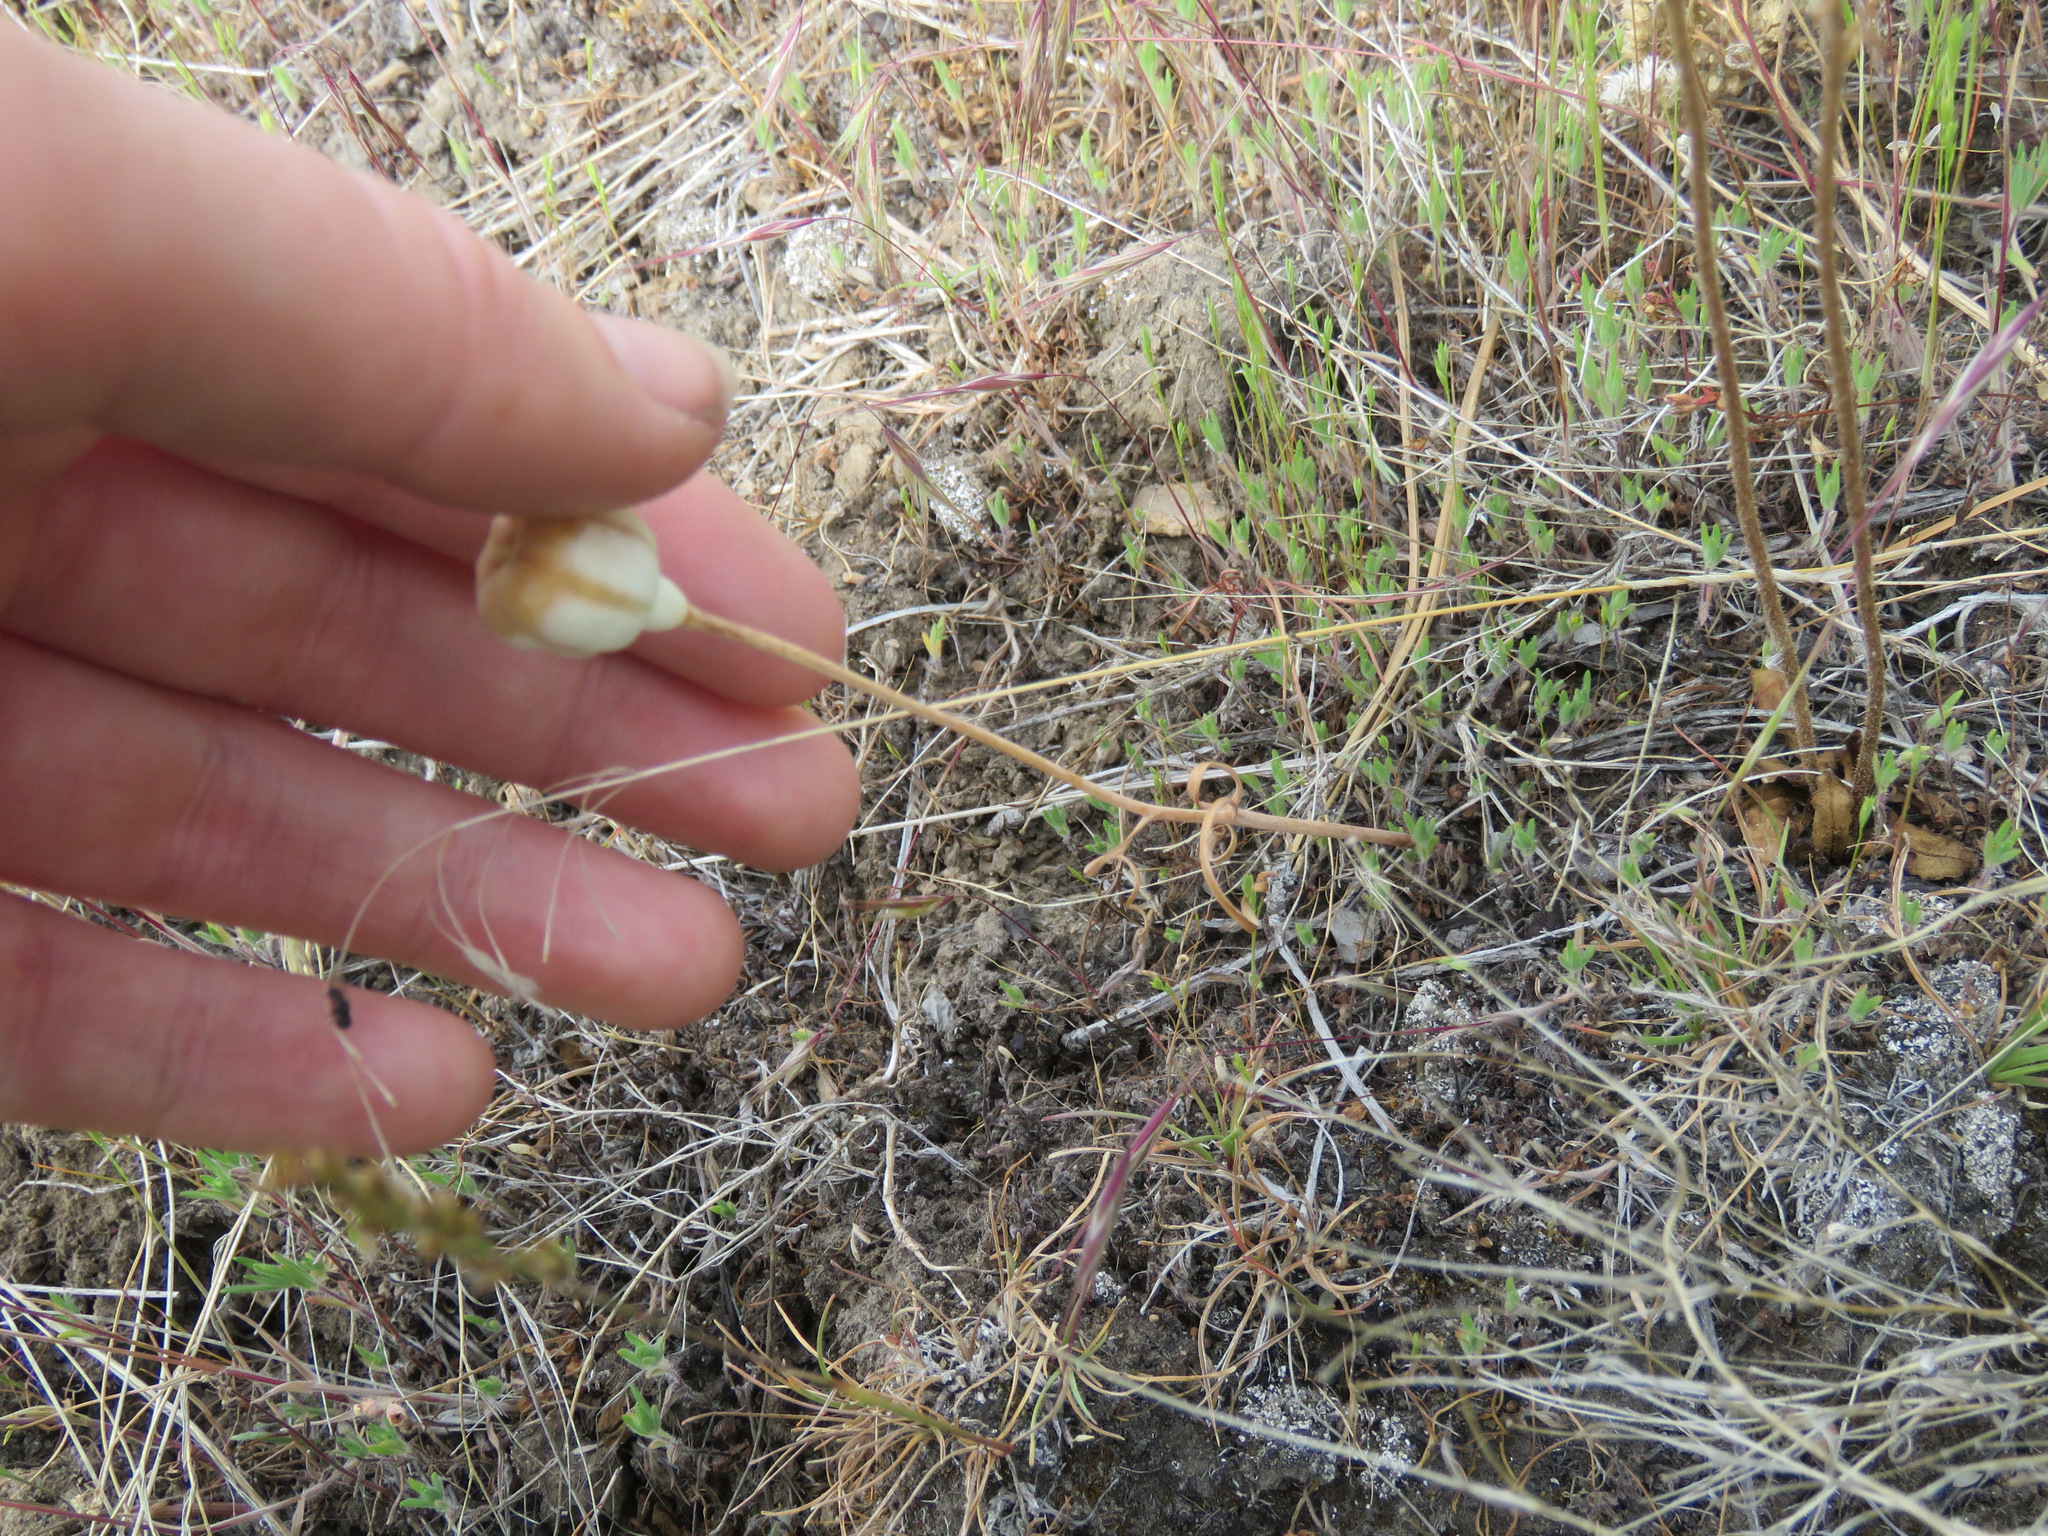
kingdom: Plantae
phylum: Tracheophyta
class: Liliopsida
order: Liliales
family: Liliaceae
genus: Fritillaria
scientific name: Fritillaria pudica
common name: Yellow fritillary
